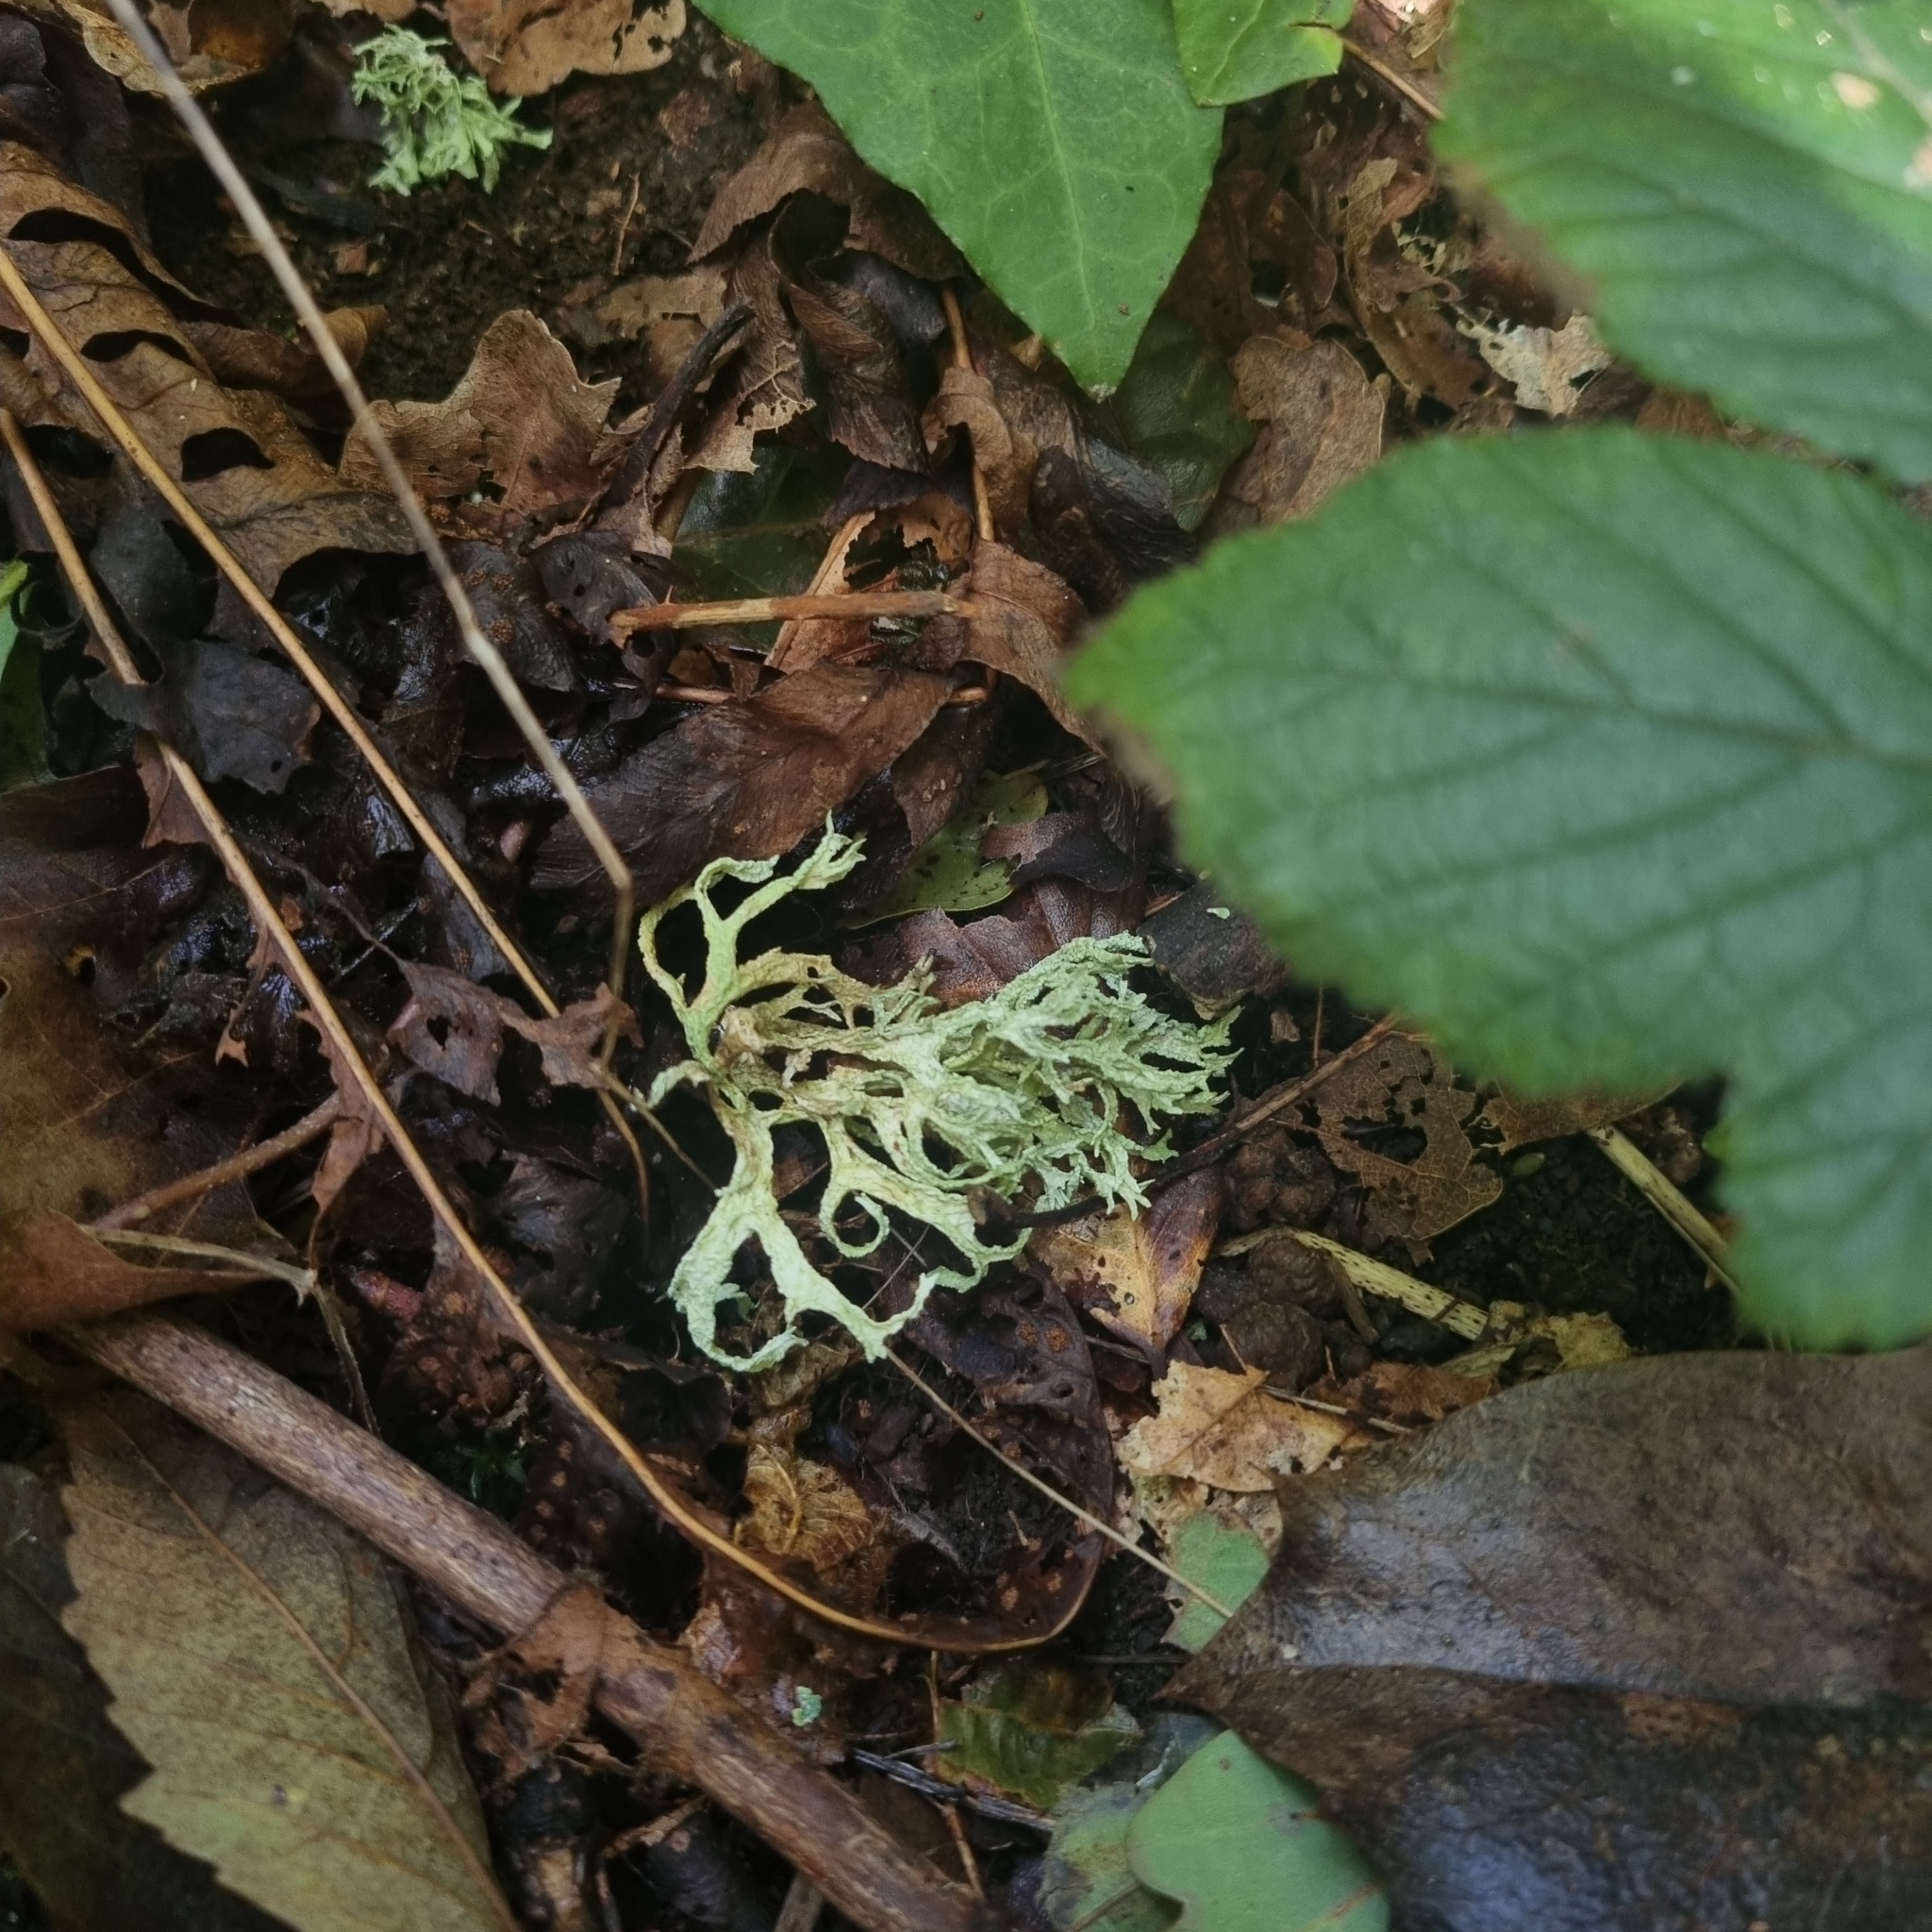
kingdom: Fungi
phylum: Ascomycota
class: Lecanoromycetes
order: Lecanorales
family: Parmeliaceae
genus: Evernia
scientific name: Evernia prunastri
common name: Oak moss
